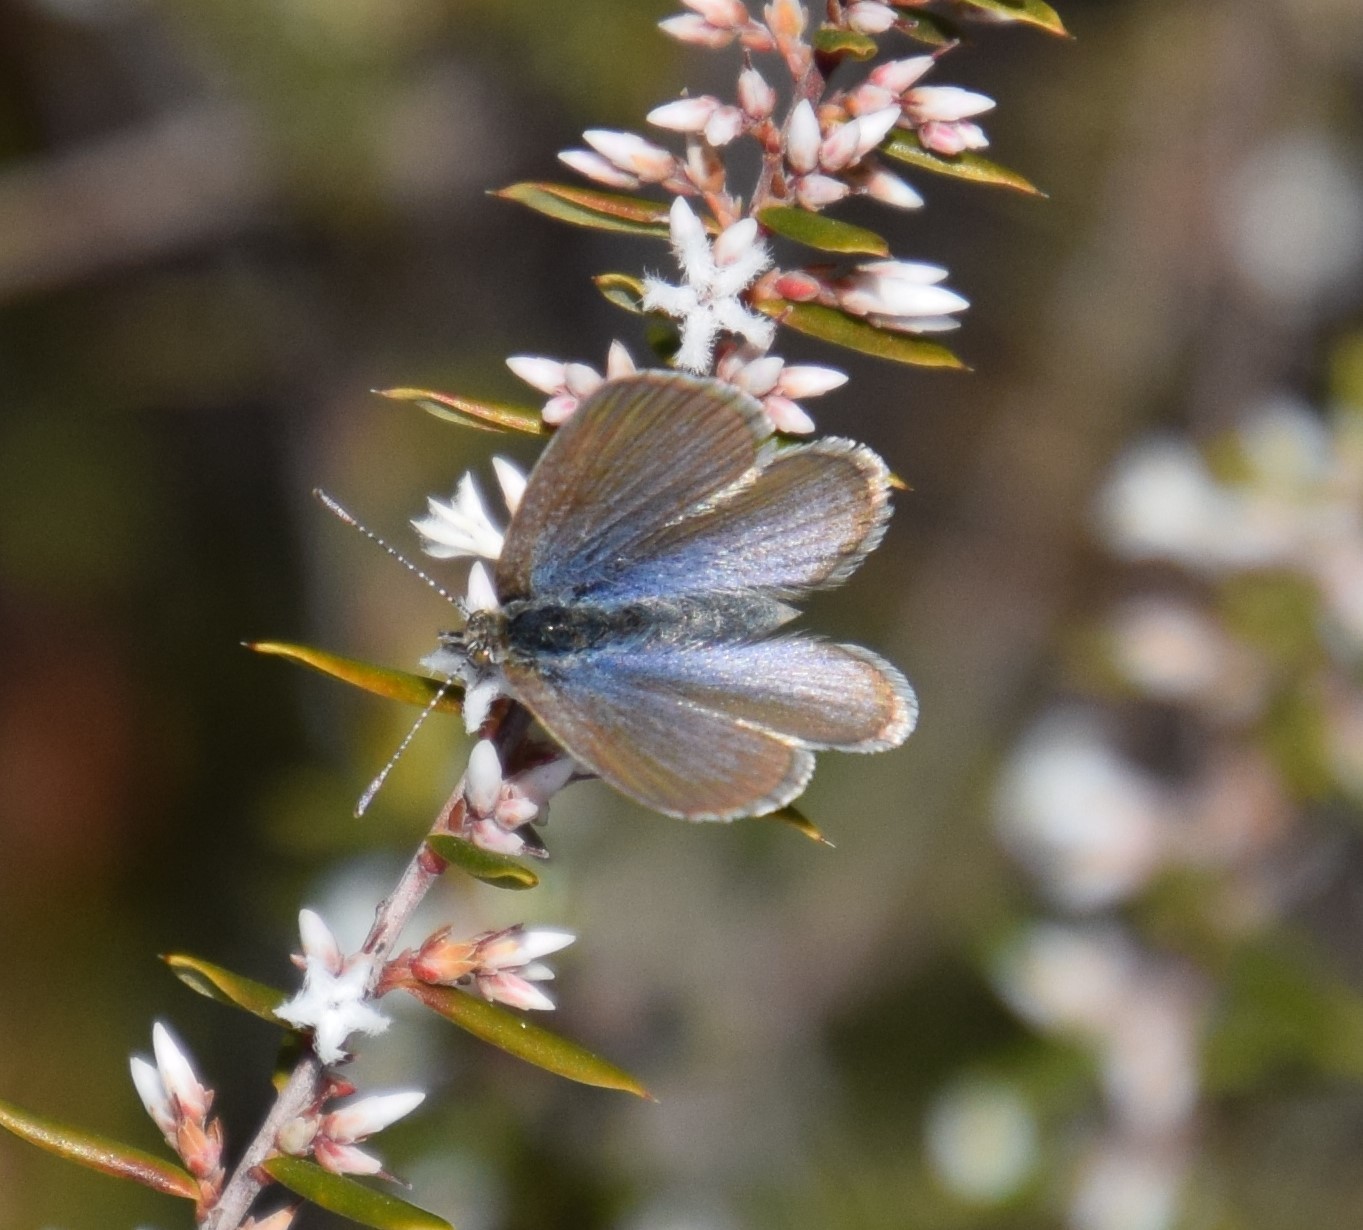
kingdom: Animalia
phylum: Arthropoda
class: Insecta
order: Lepidoptera
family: Lycaenidae
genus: Zizina
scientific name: Zizina labradus
